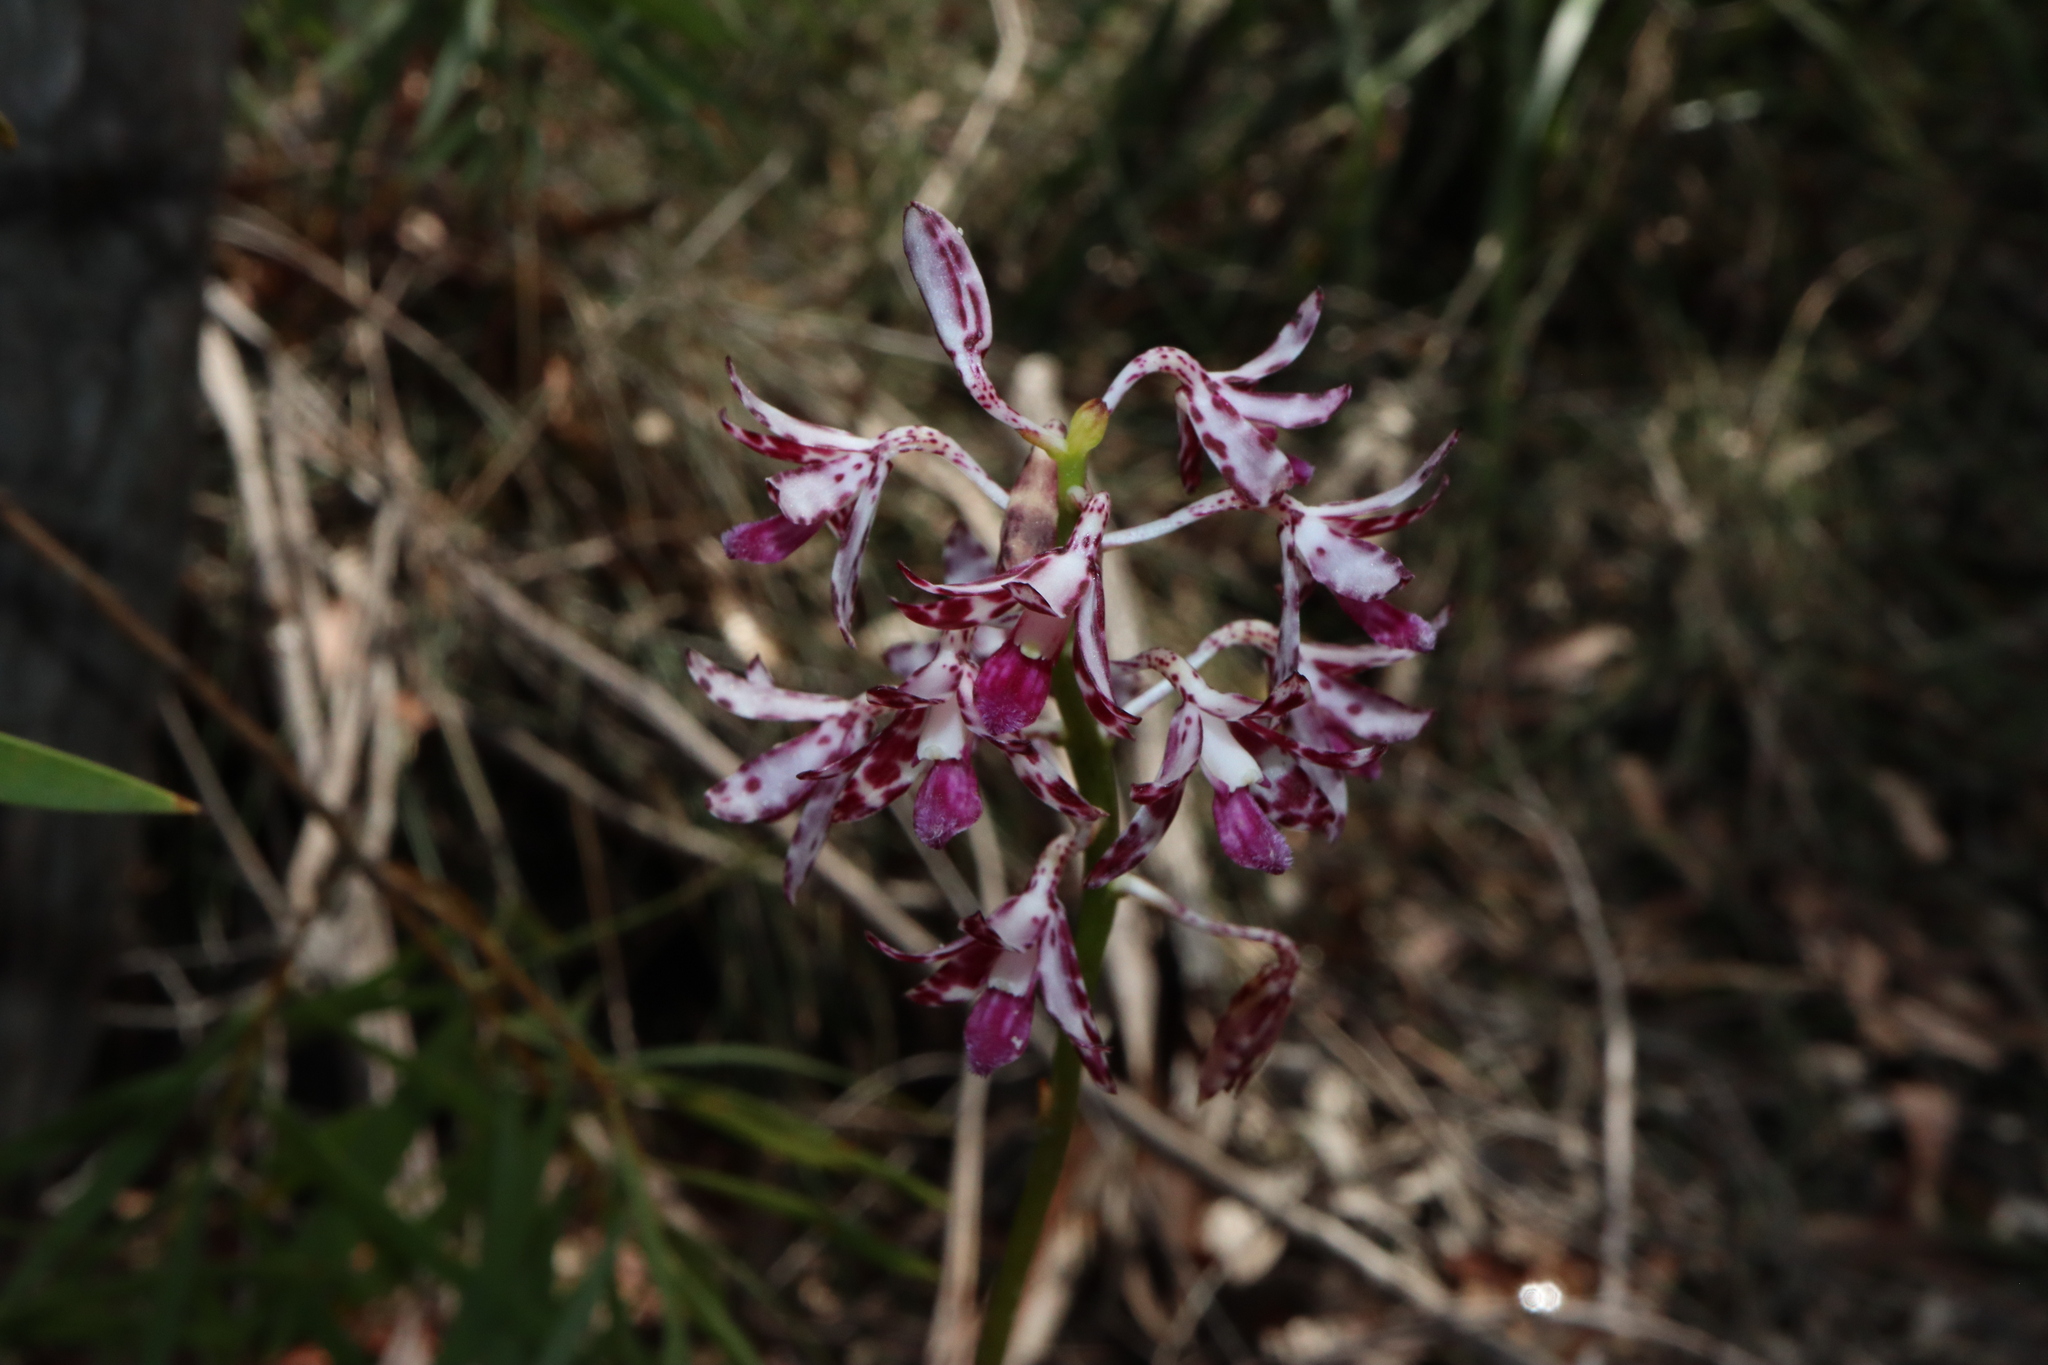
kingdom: Plantae
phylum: Tracheophyta
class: Liliopsida
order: Asparagales
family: Orchidaceae
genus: Dipodium
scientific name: Dipodium variegatum
